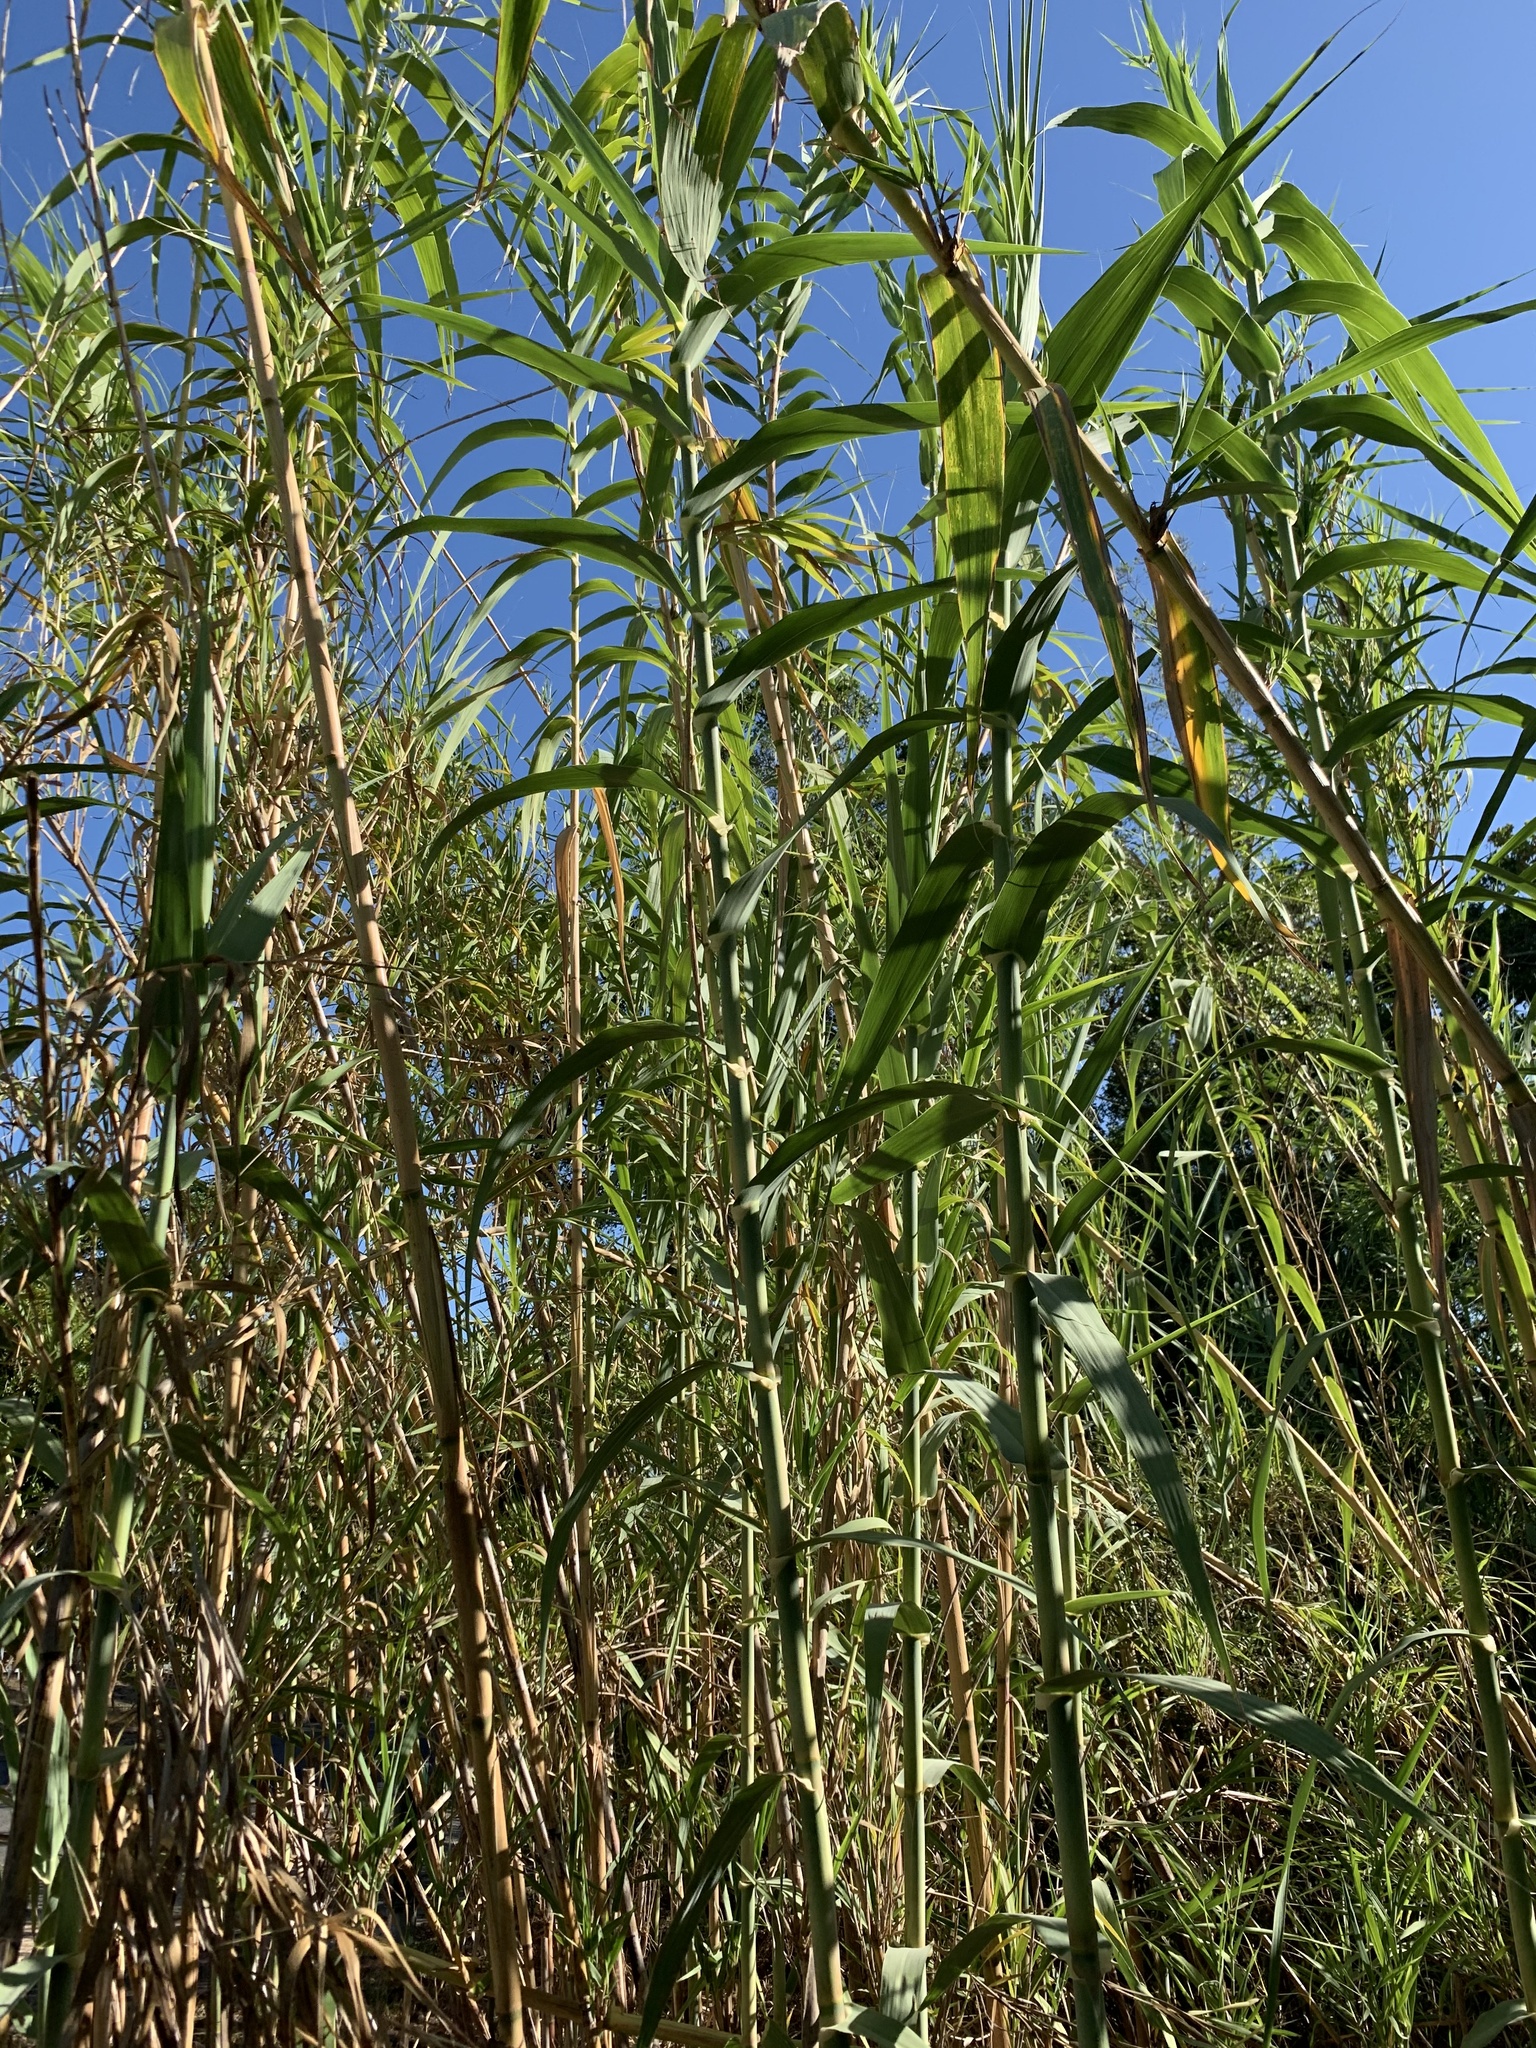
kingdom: Plantae
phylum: Tracheophyta
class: Liliopsida
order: Poales
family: Poaceae
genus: Arundo
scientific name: Arundo donax
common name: Giant reed
